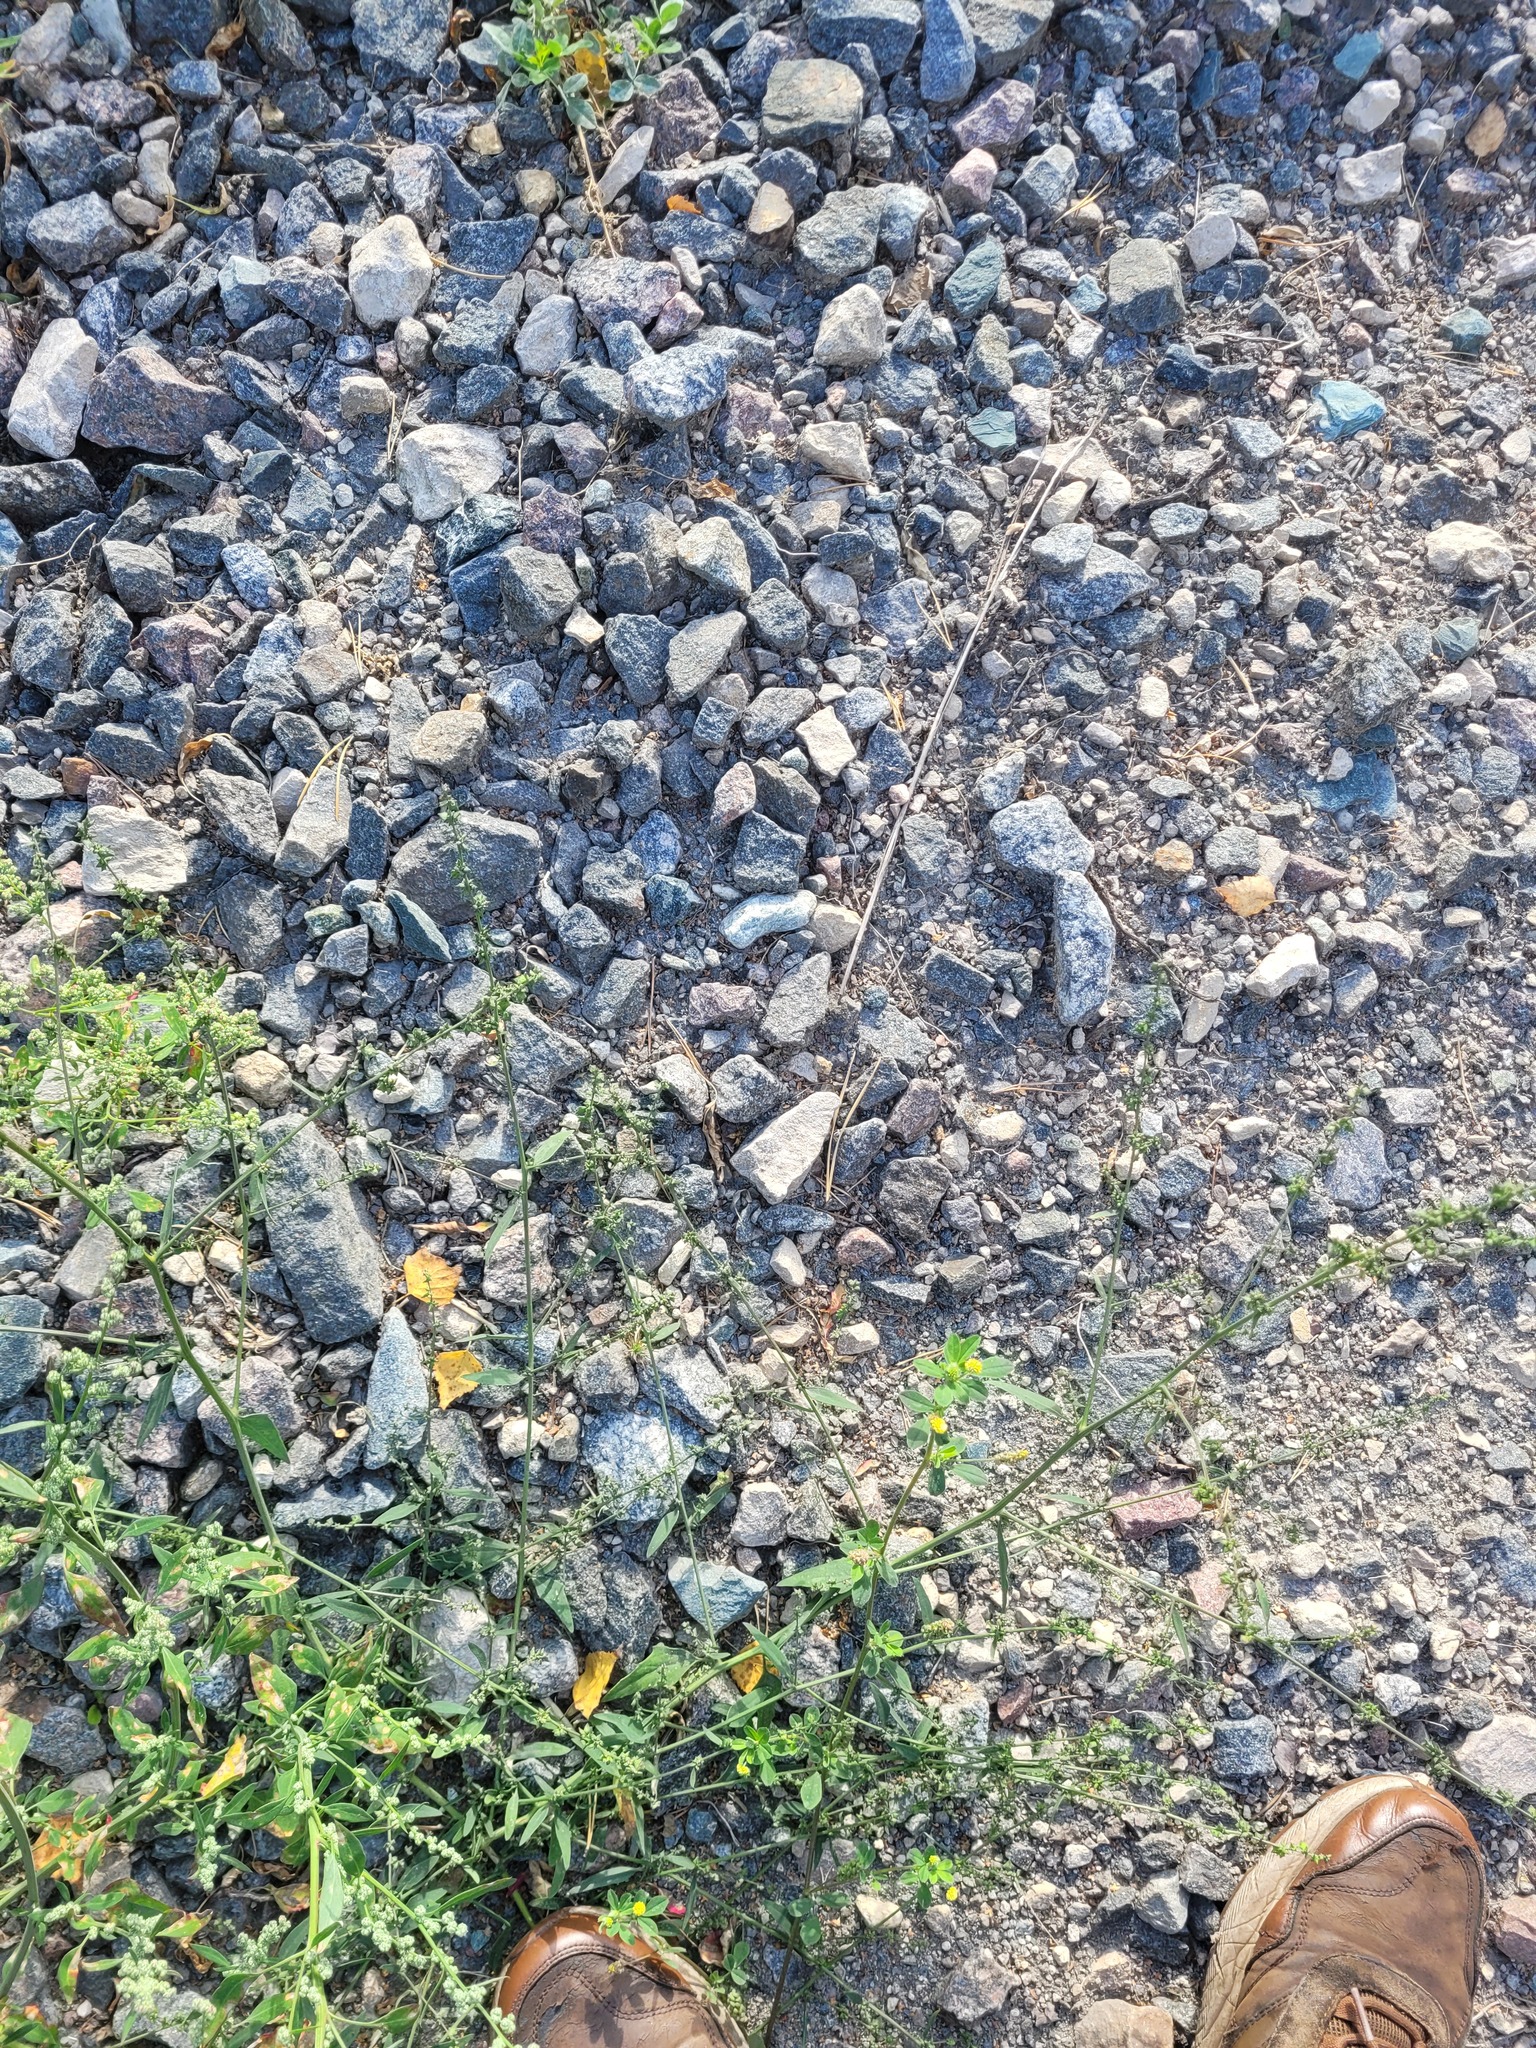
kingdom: Plantae
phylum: Tracheophyta
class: Magnoliopsida
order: Caryophyllales
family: Amaranthaceae
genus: Atriplex
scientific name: Atriplex patula
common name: Common orache
